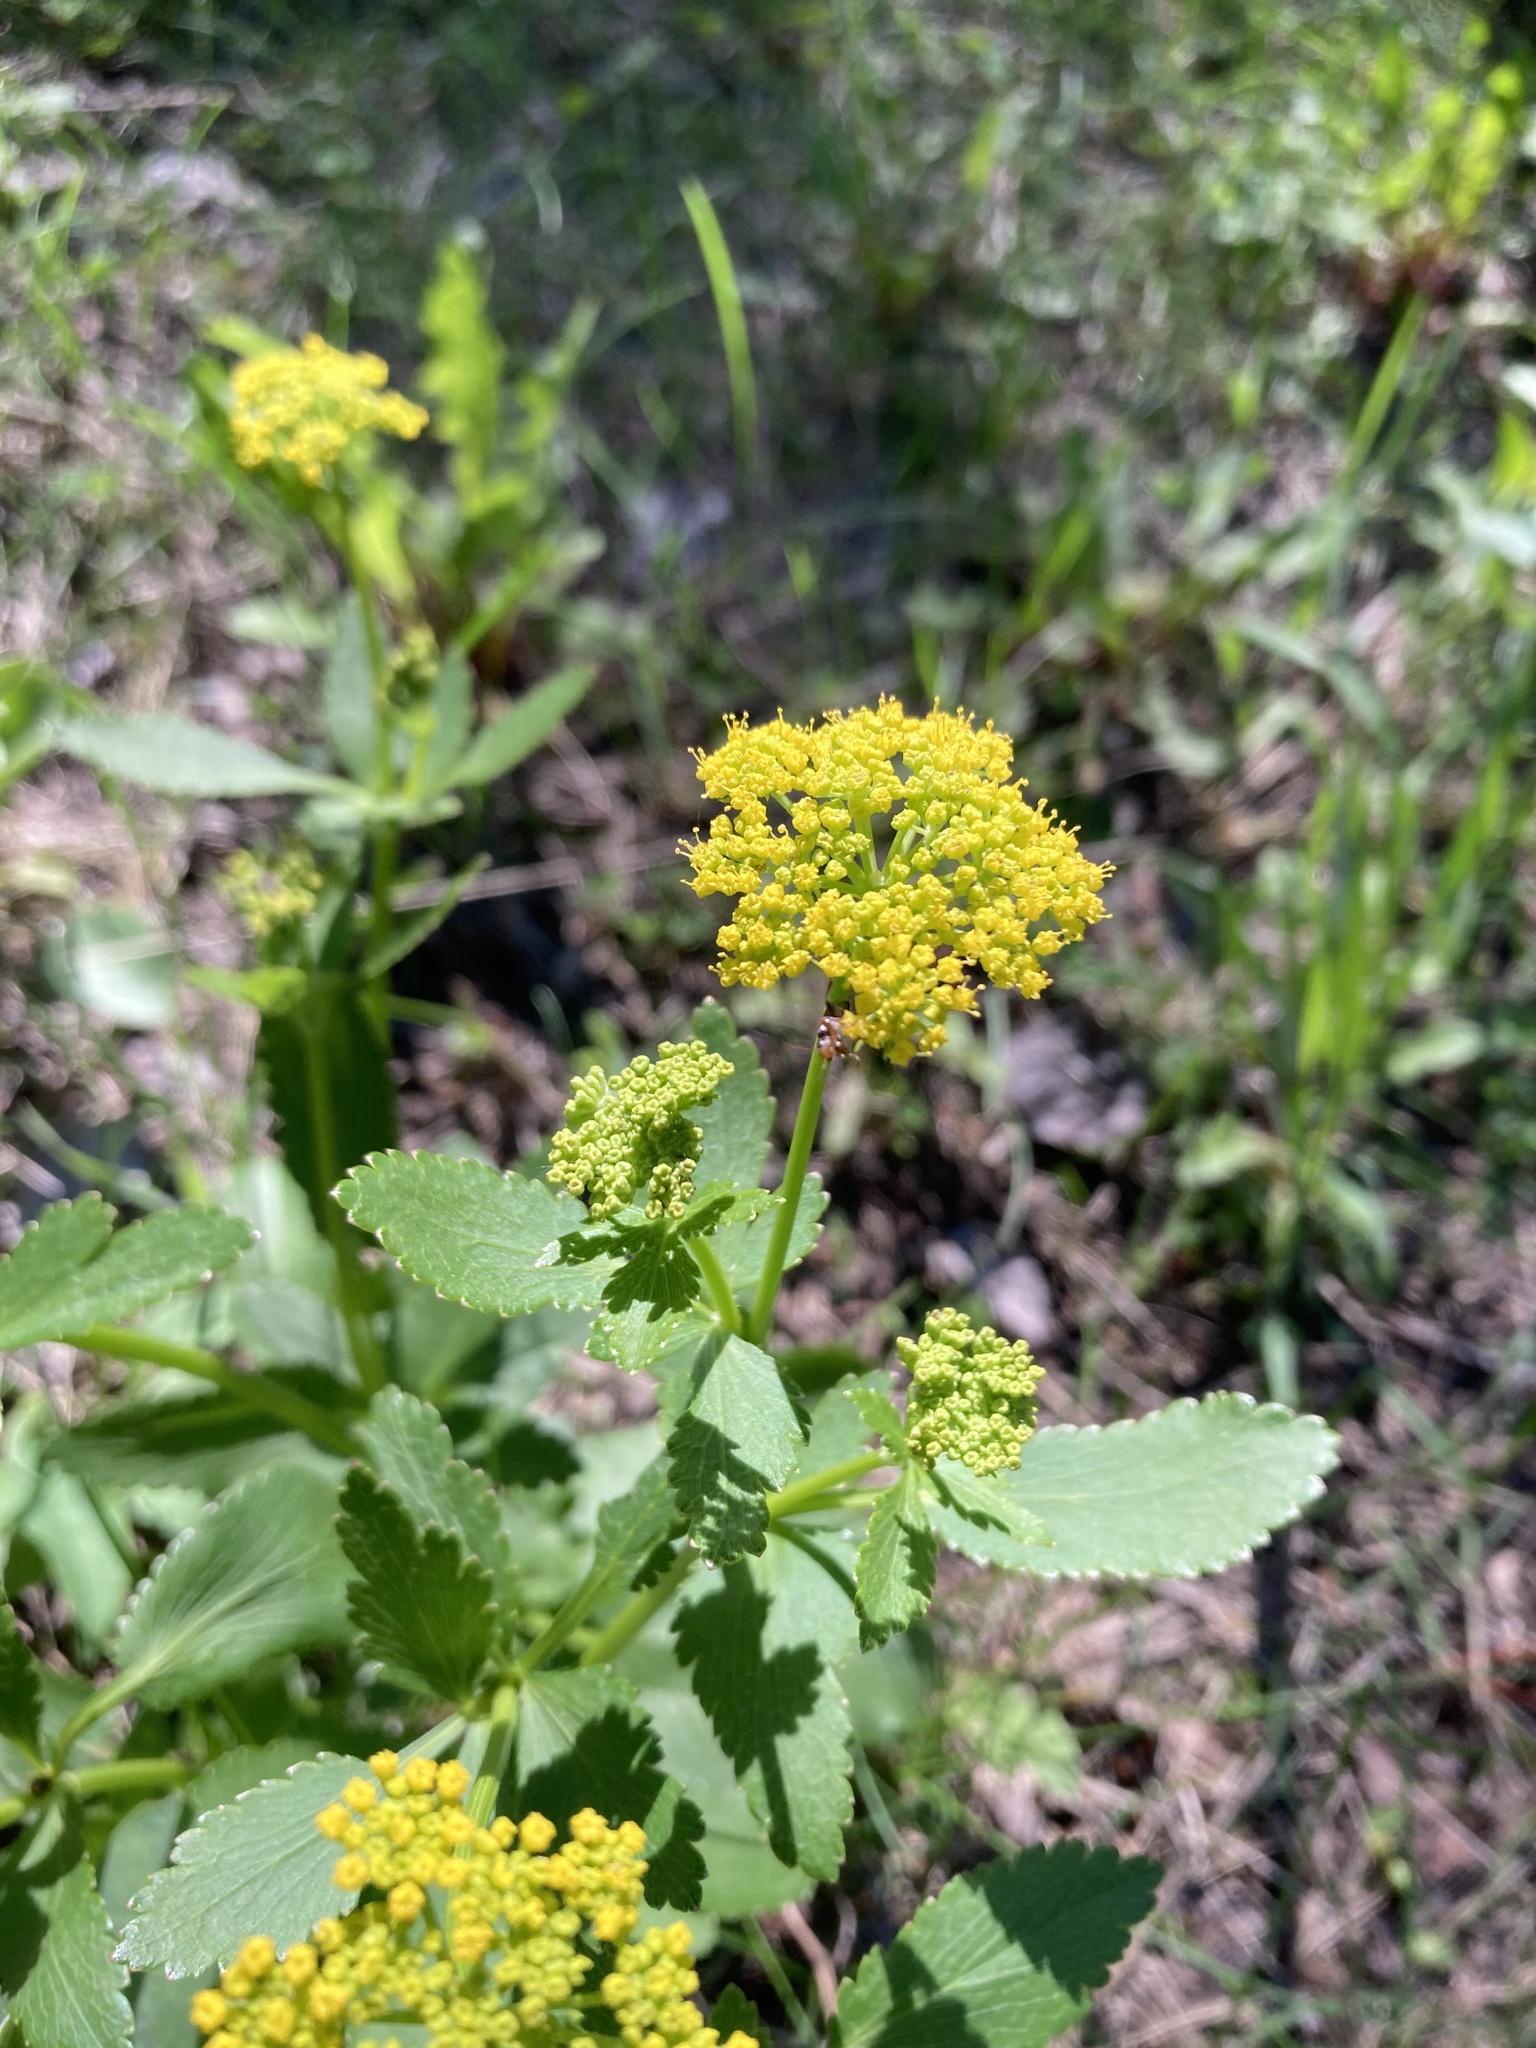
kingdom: Plantae
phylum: Tracheophyta
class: Magnoliopsida
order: Apiales
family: Apiaceae
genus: Zizia
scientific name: Zizia aptera
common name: Heart-leaved alexanders
